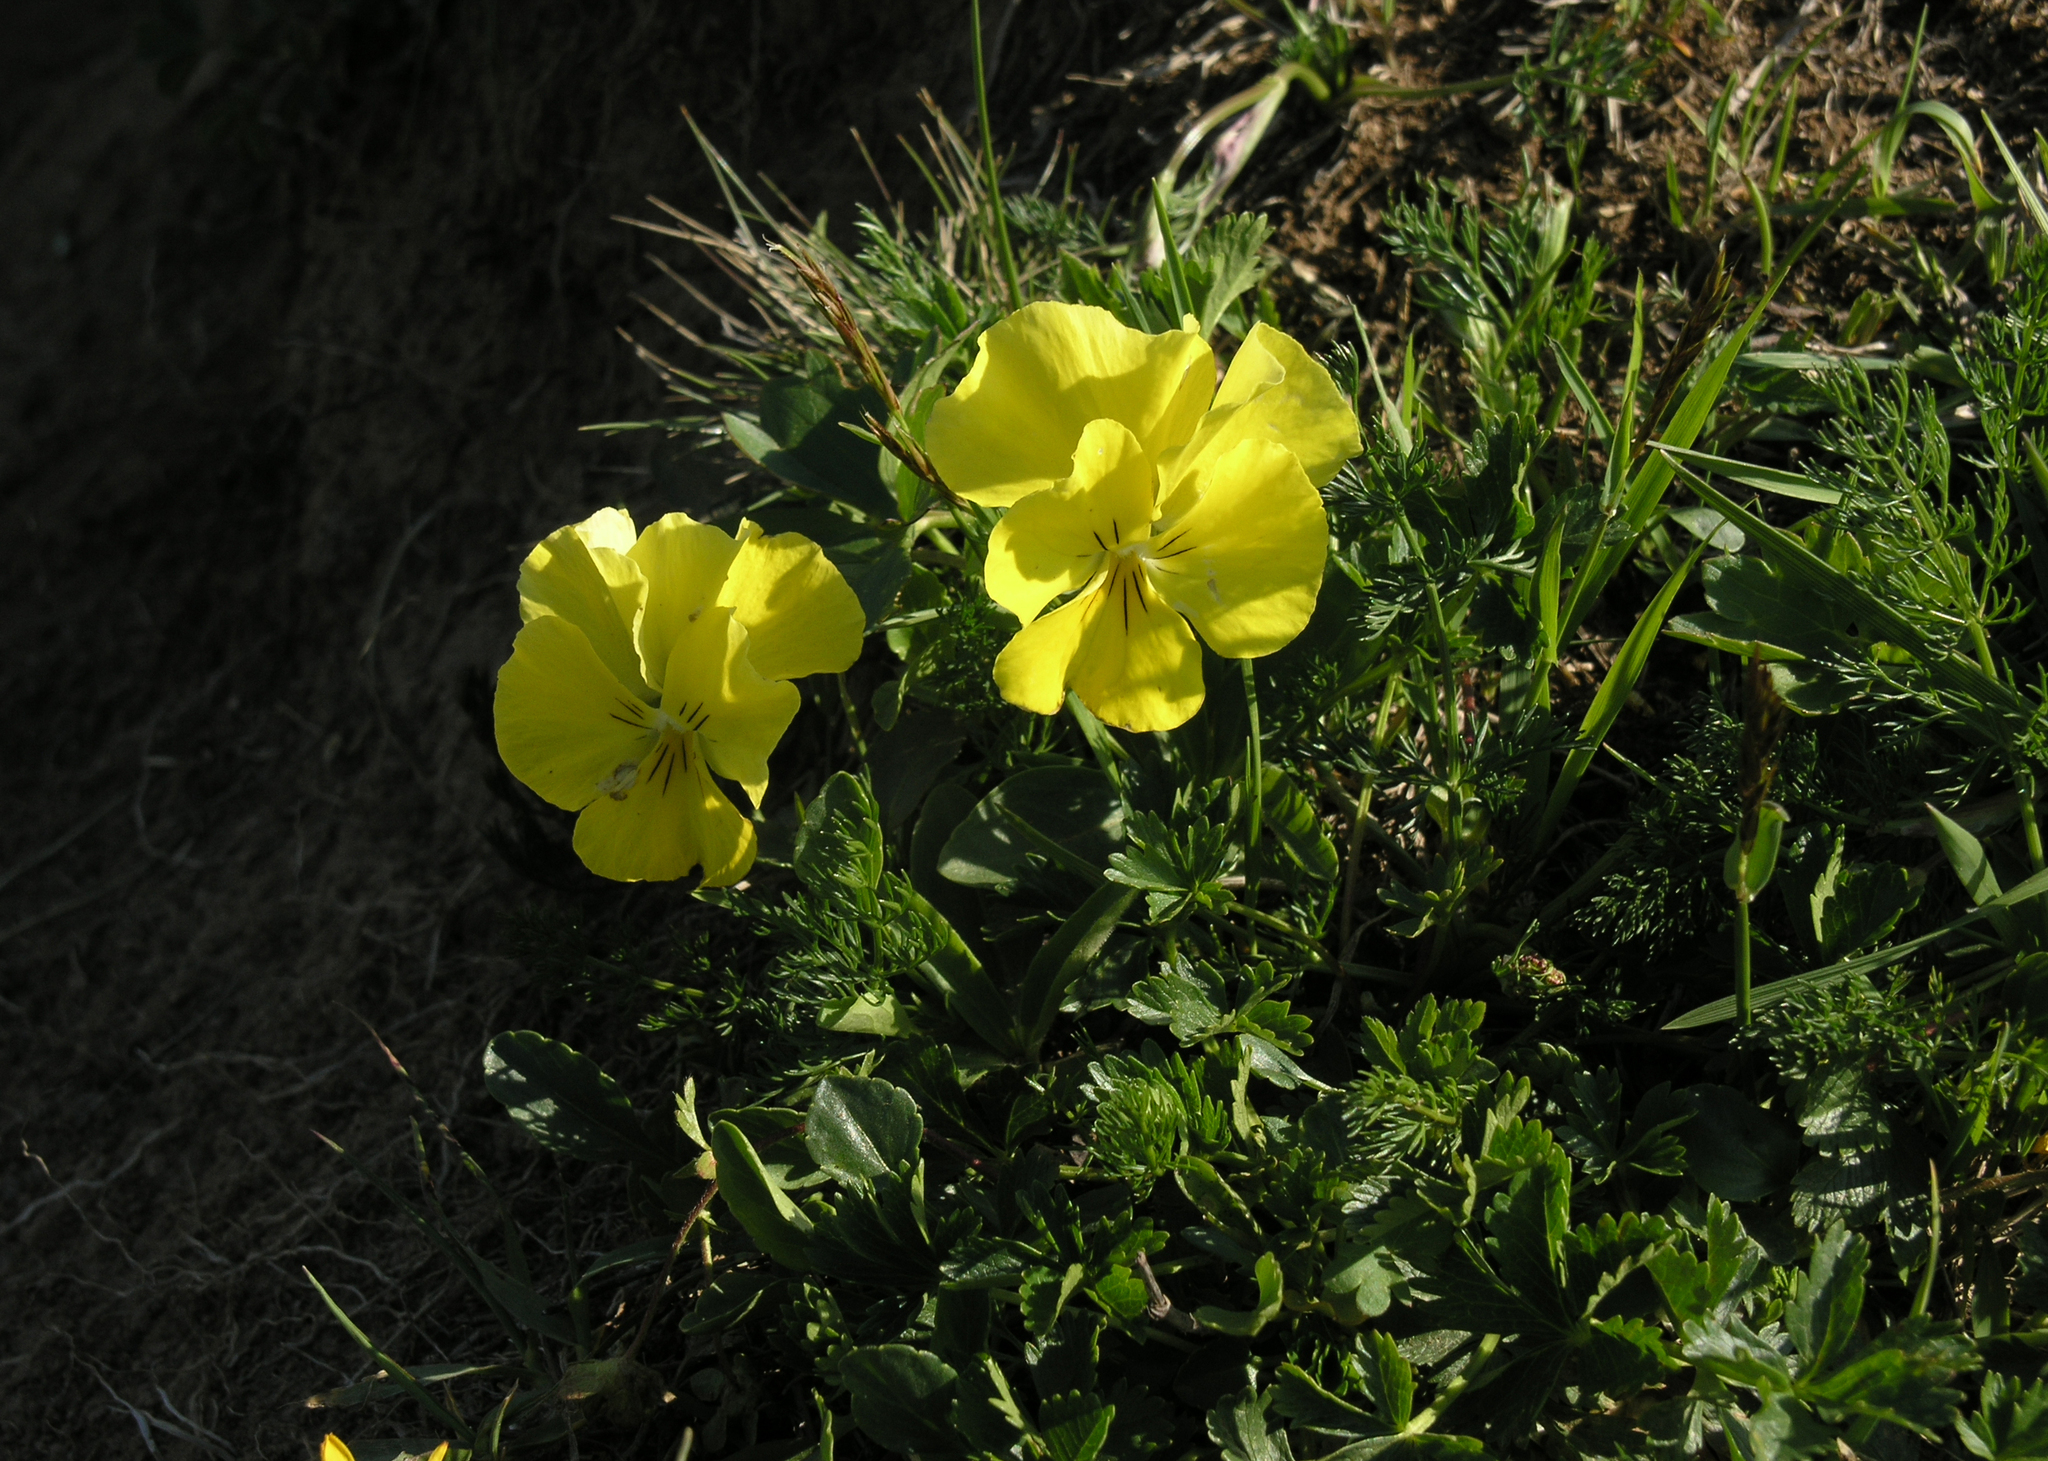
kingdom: Plantae
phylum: Tracheophyta
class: Magnoliopsida
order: Malpighiales
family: Violaceae
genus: Viola
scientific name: Viola oreades
